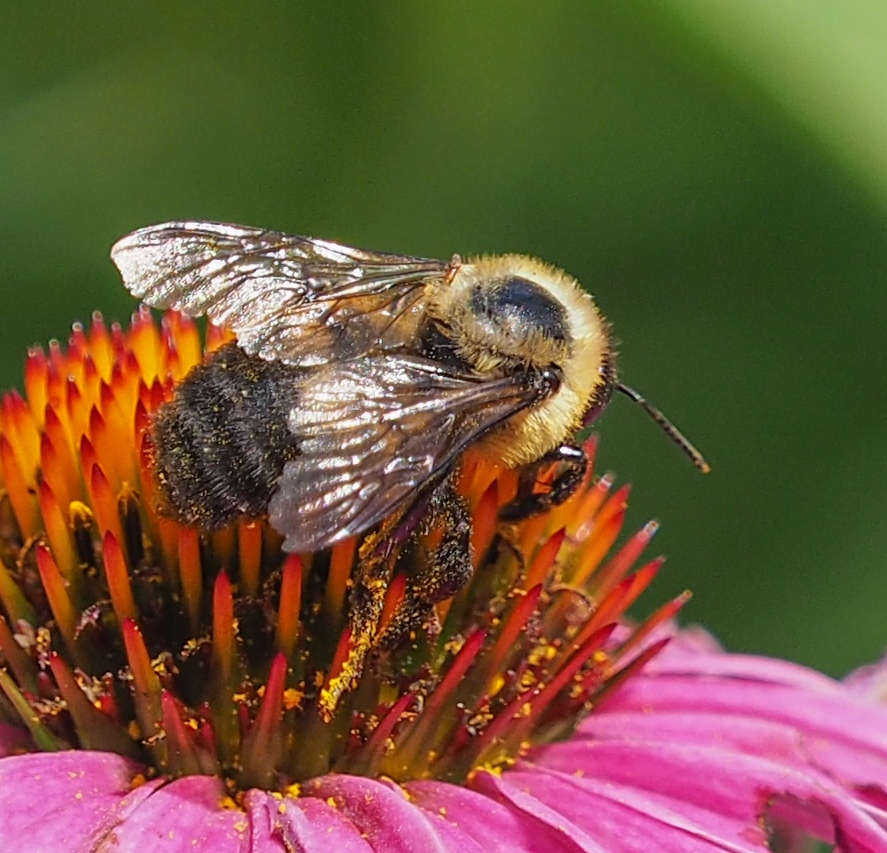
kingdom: Animalia
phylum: Arthropoda
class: Insecta
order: Hymenoptera
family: Apidae
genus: Bombus
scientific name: Bombus griseocollis
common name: Brown-belted bumble bee
